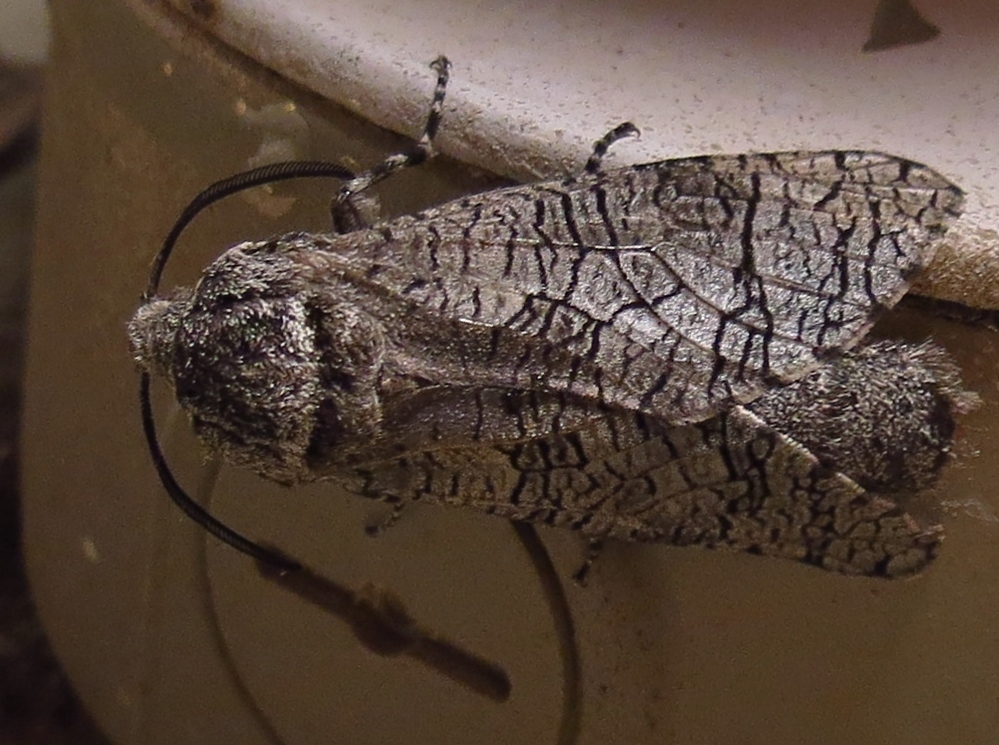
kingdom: Animalia
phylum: Arthropoda
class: Insecta
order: Lepidoptera
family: Cossidae
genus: Prionoxystus
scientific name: Prionoxystus macmurtrei
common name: Little carpenterworm
